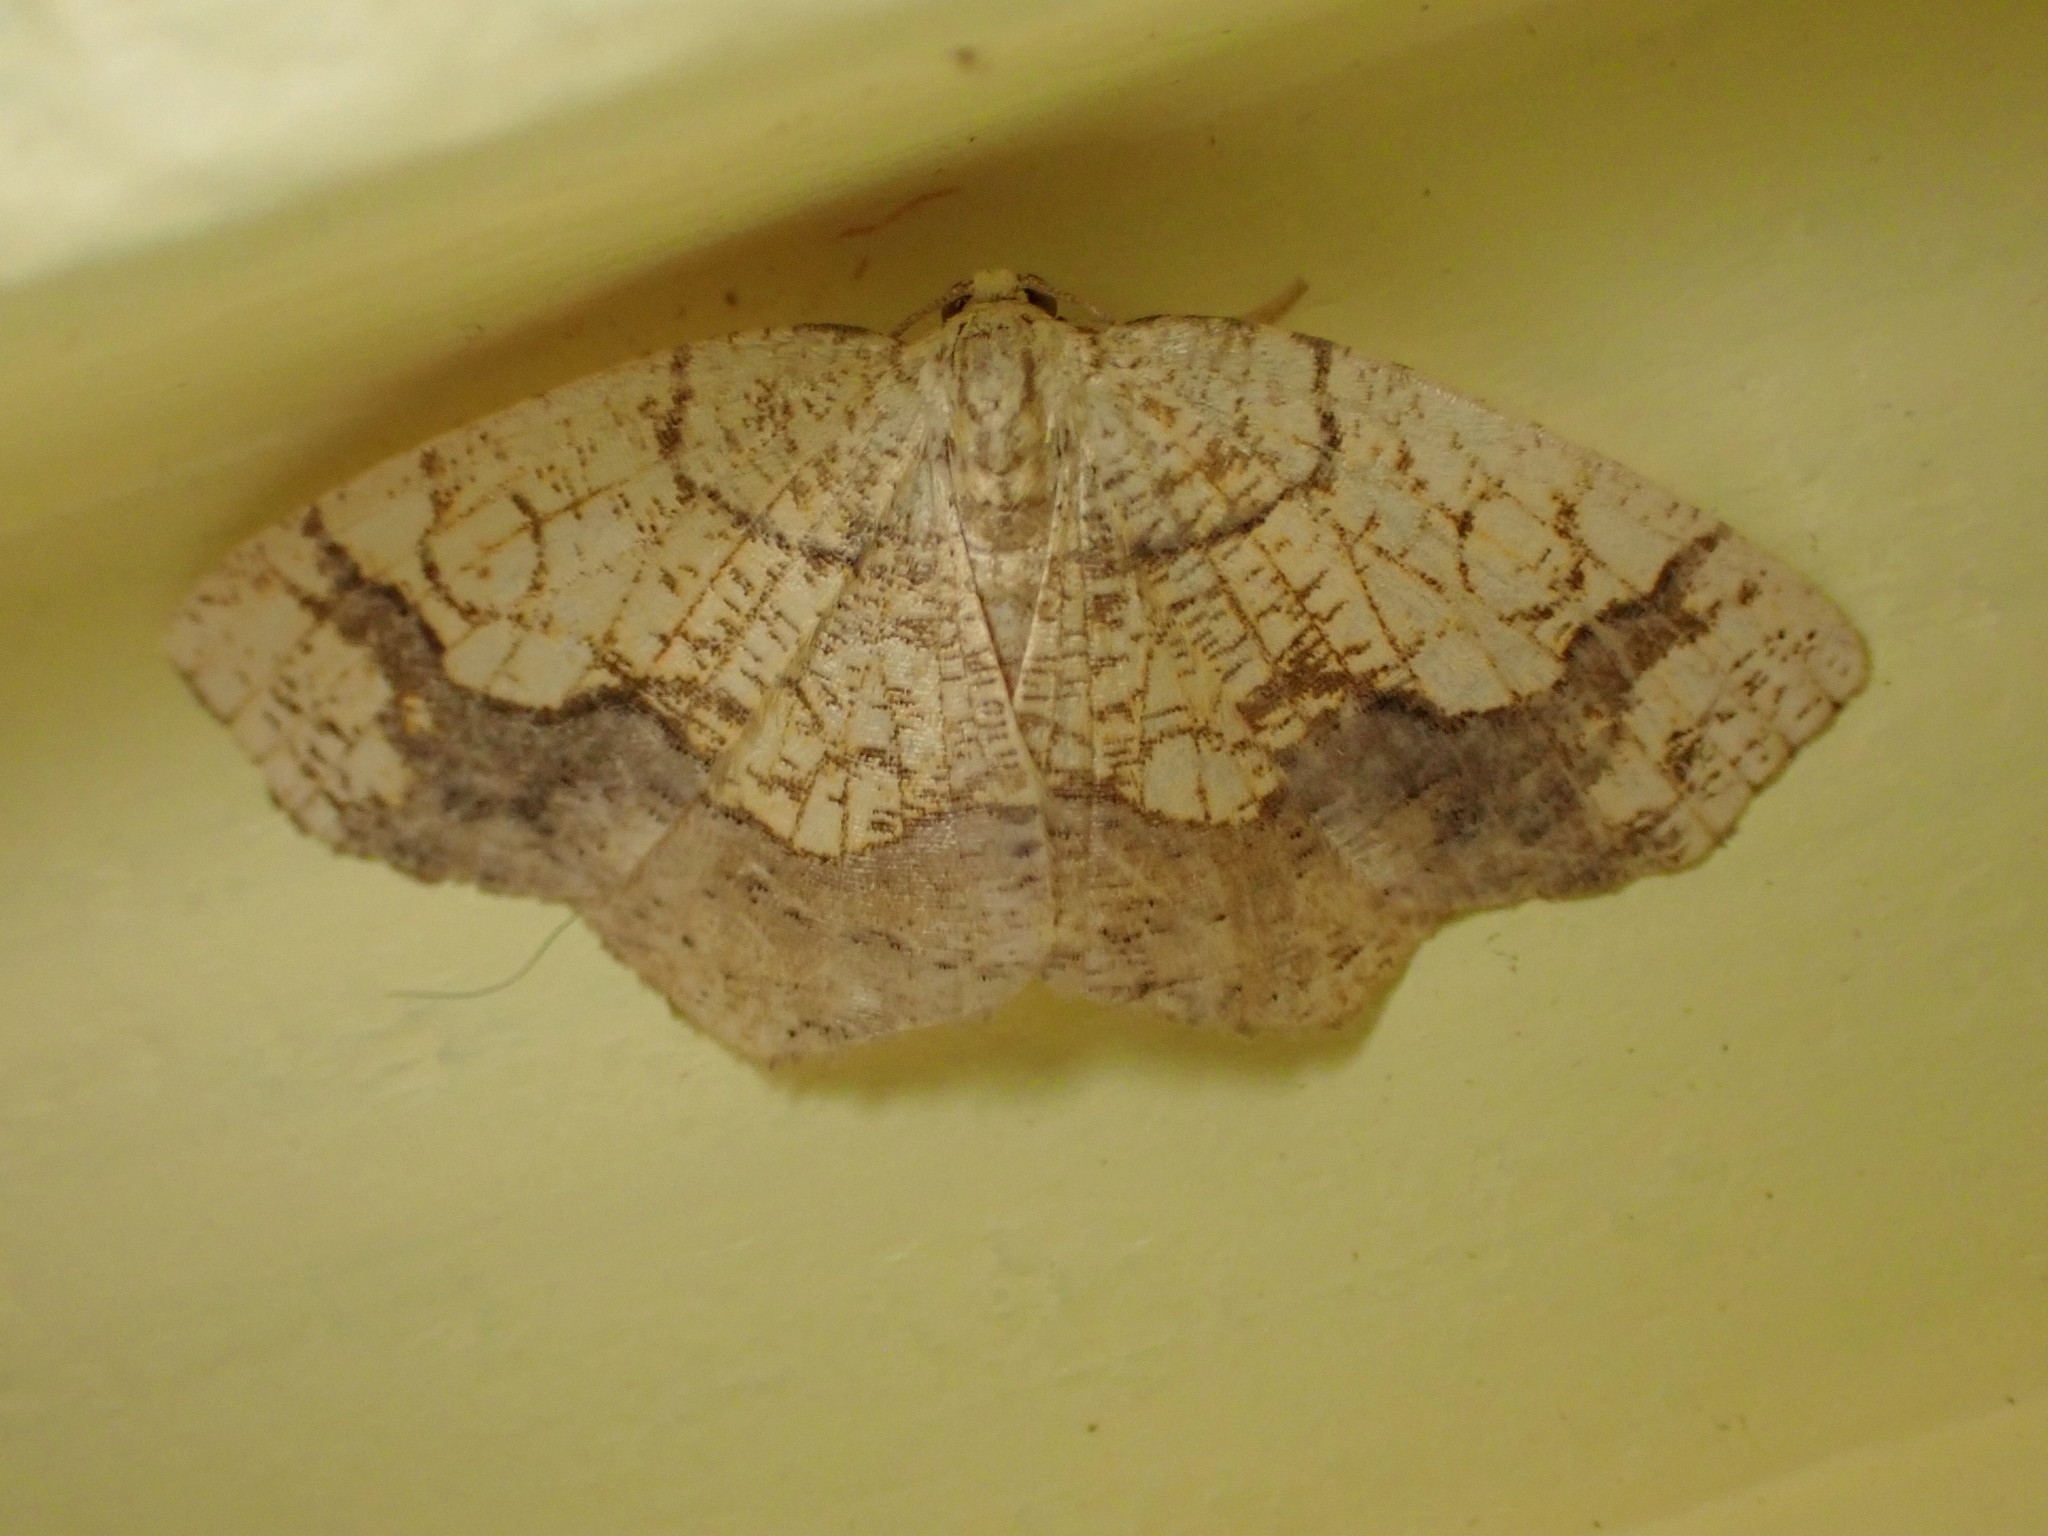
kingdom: Animalia
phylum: Arthropoda
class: Insecta
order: Lepidoptera
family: Geometridae
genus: Nematocampa
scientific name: Nematocampa resistaria
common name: Horned spanworm moth
